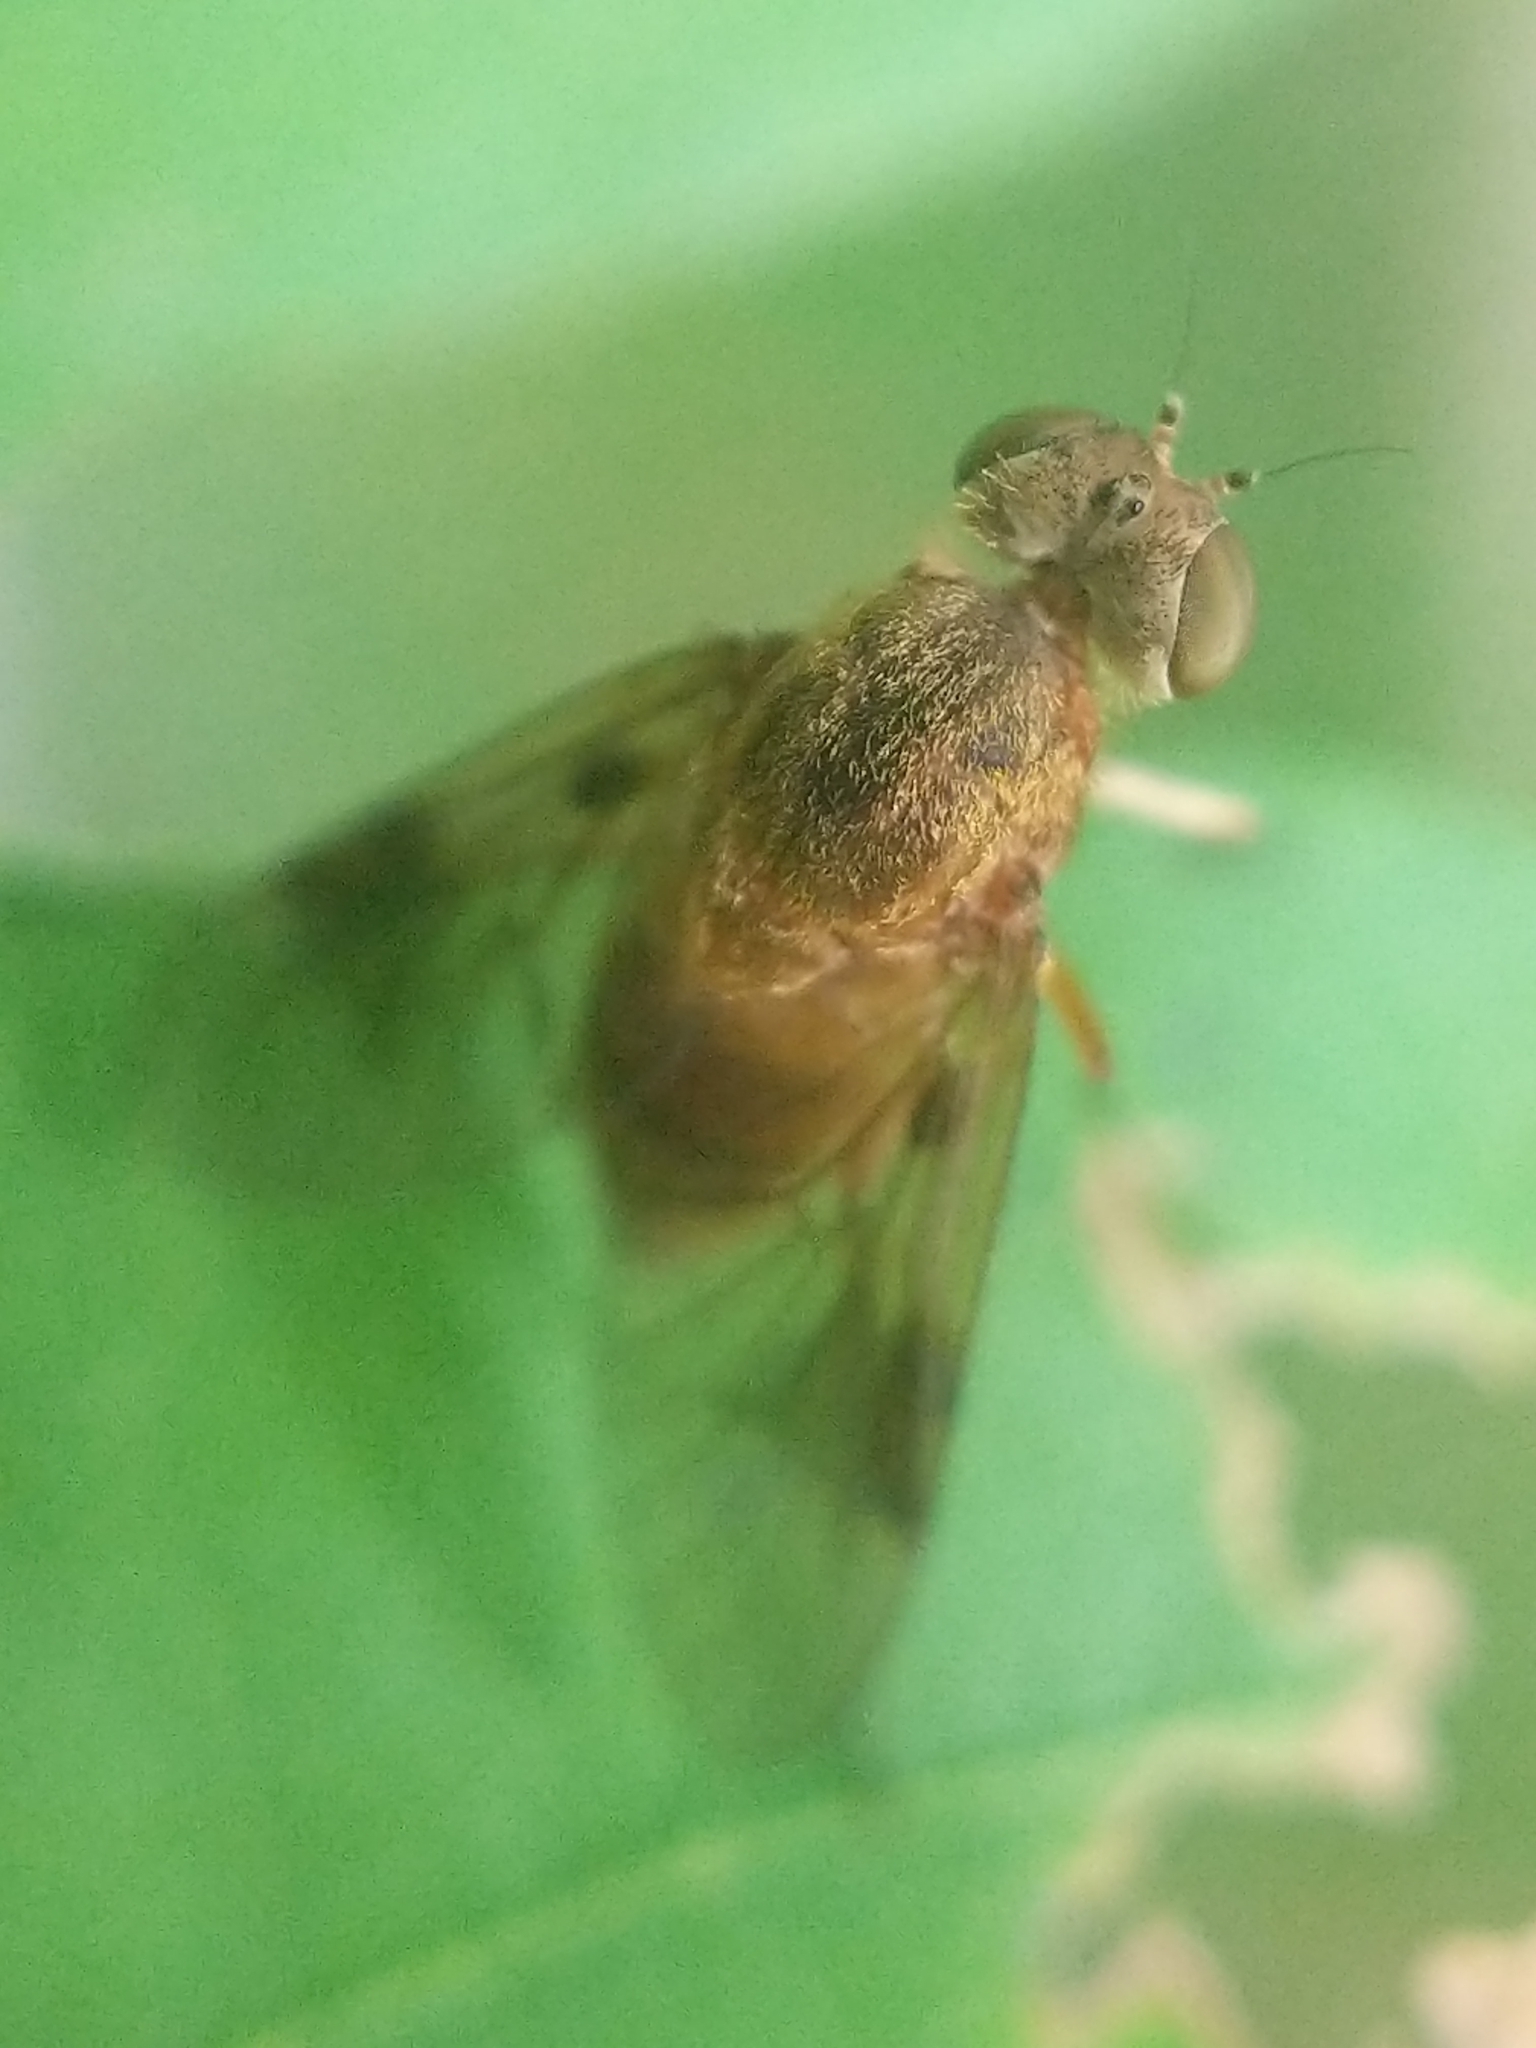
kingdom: Animalia
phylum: Arthropoda
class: Insecta
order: Diptera
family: Rhagionidae
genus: Chrysopilus
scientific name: Chrysopilus quadratus
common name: Quadrate snipe fly
